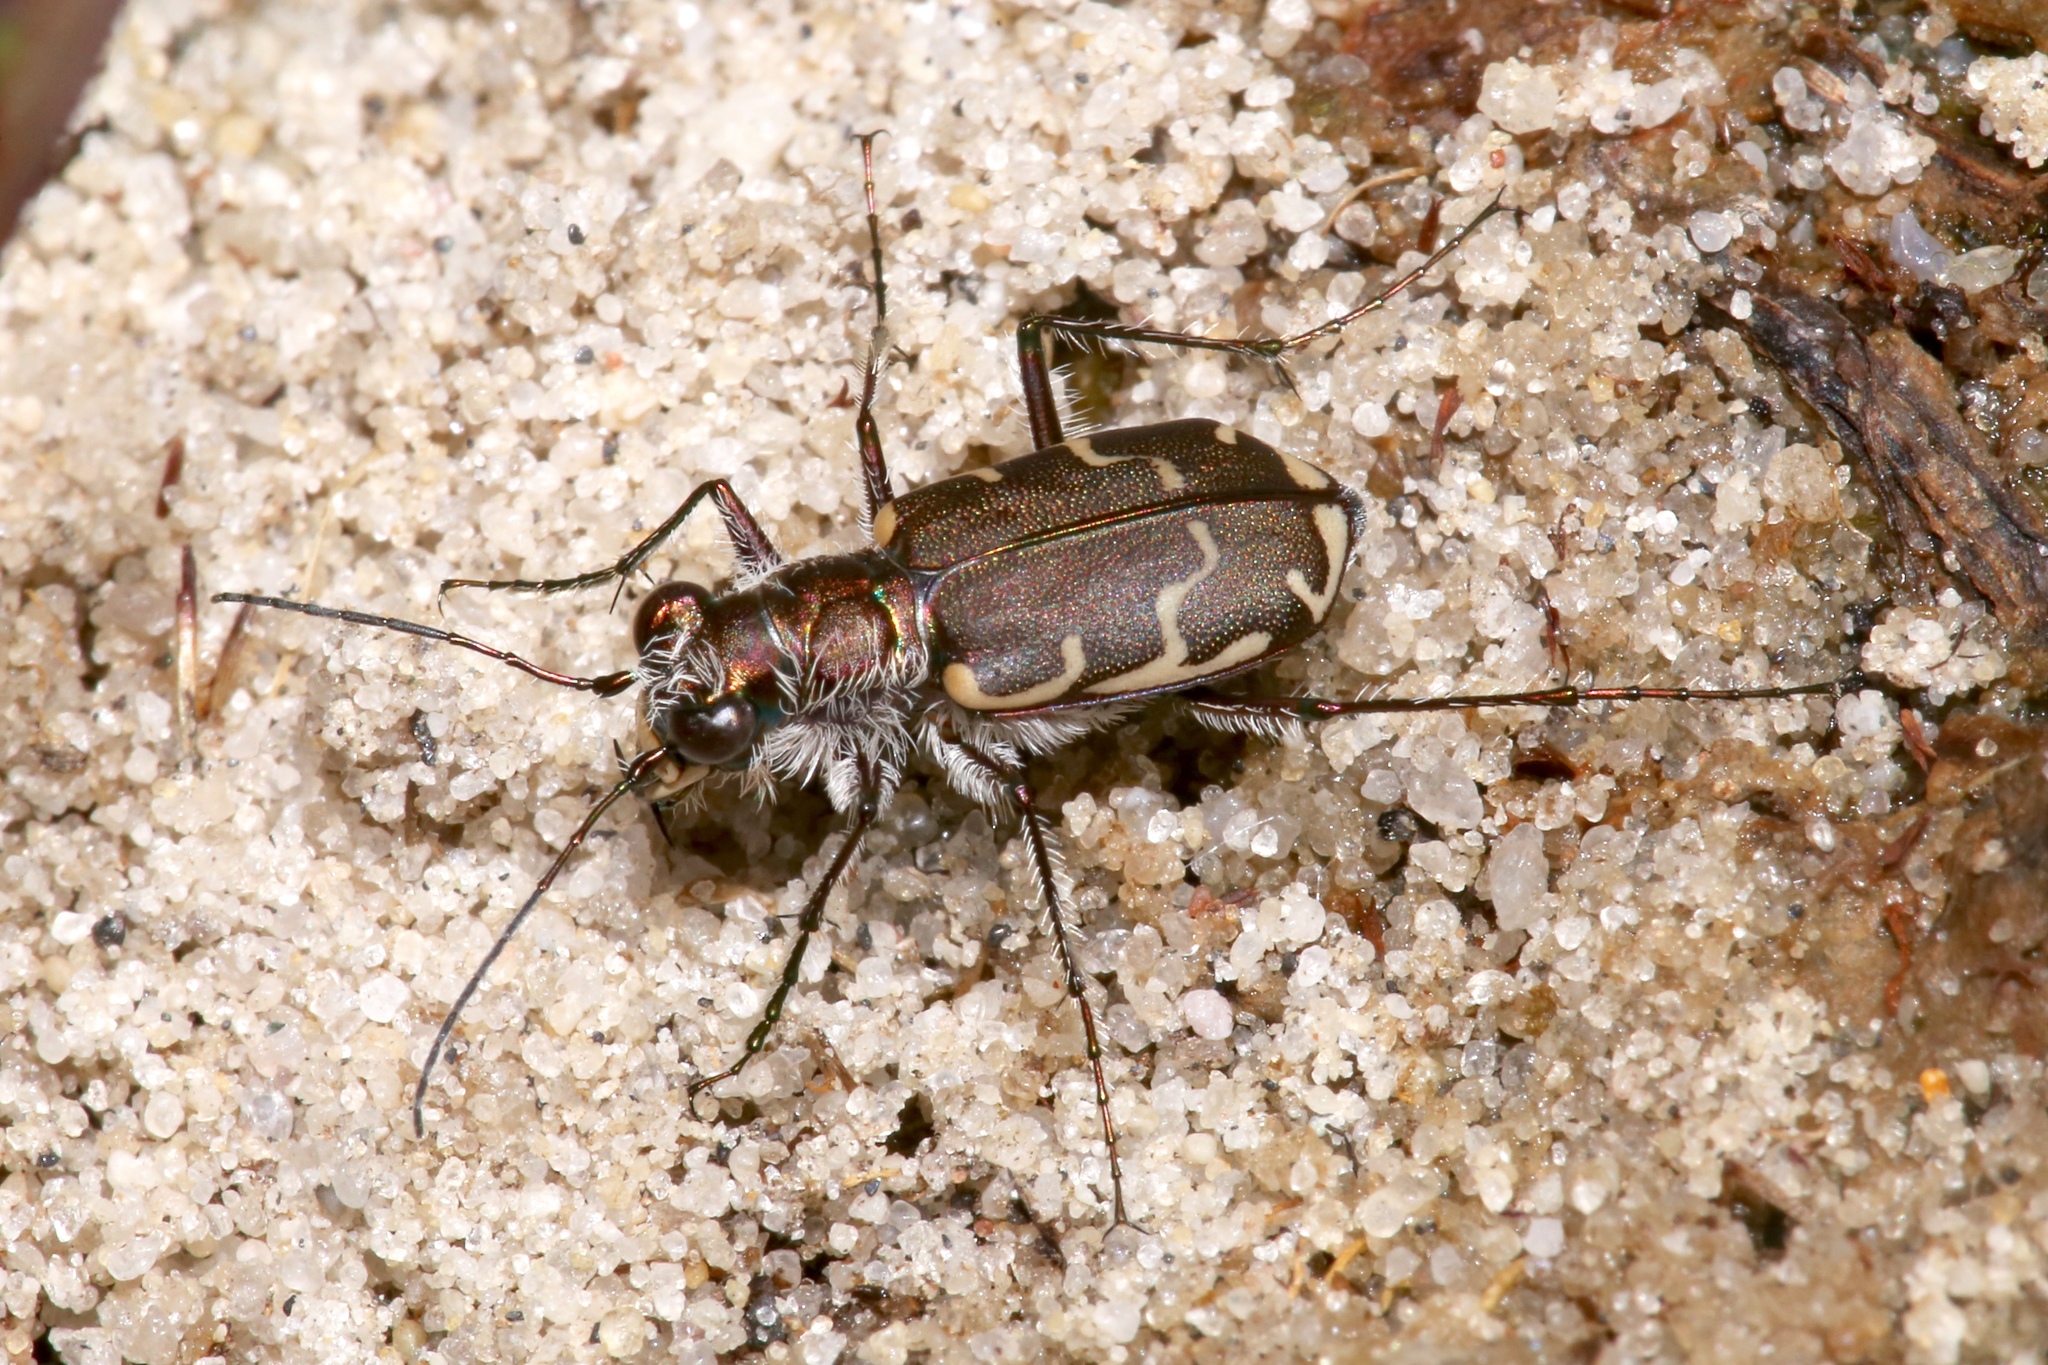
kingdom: Animalia
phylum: Arthropoda
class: Insecta
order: Coleoptera
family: Carabidae
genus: Cicindela
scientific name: Cicindela repanda
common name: Bronzed tiger beetle
